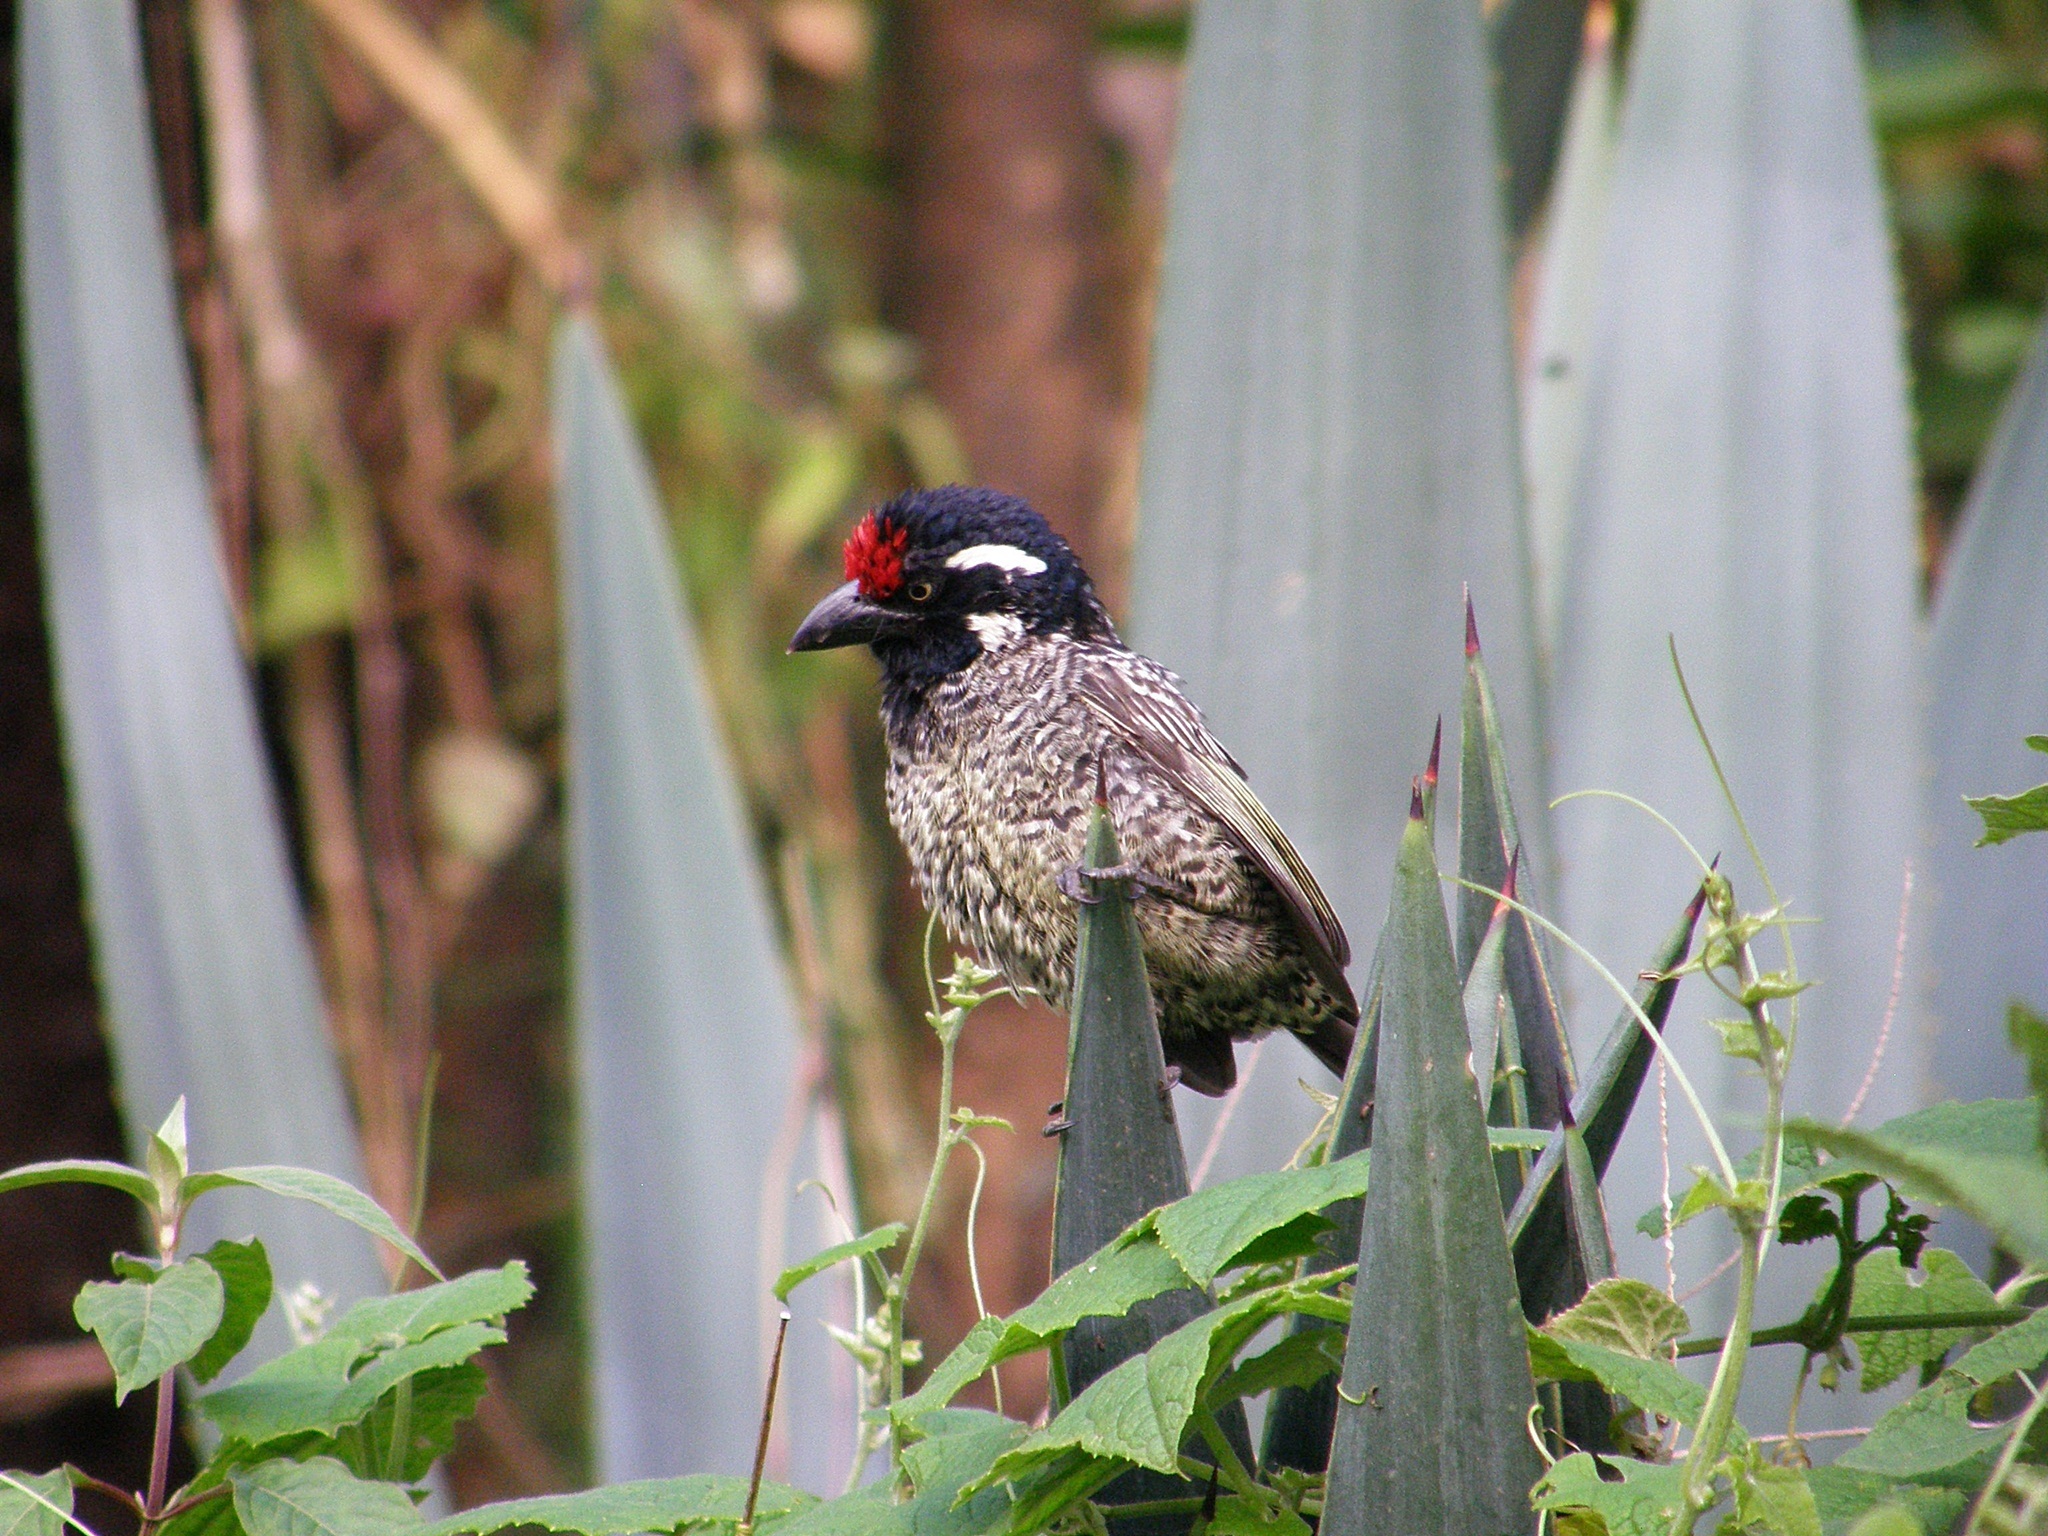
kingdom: Animalia
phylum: Chordata
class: Aves
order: Piciformes
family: Lybiidae
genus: Lybius
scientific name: Lybius undatus
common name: Banded barbet
